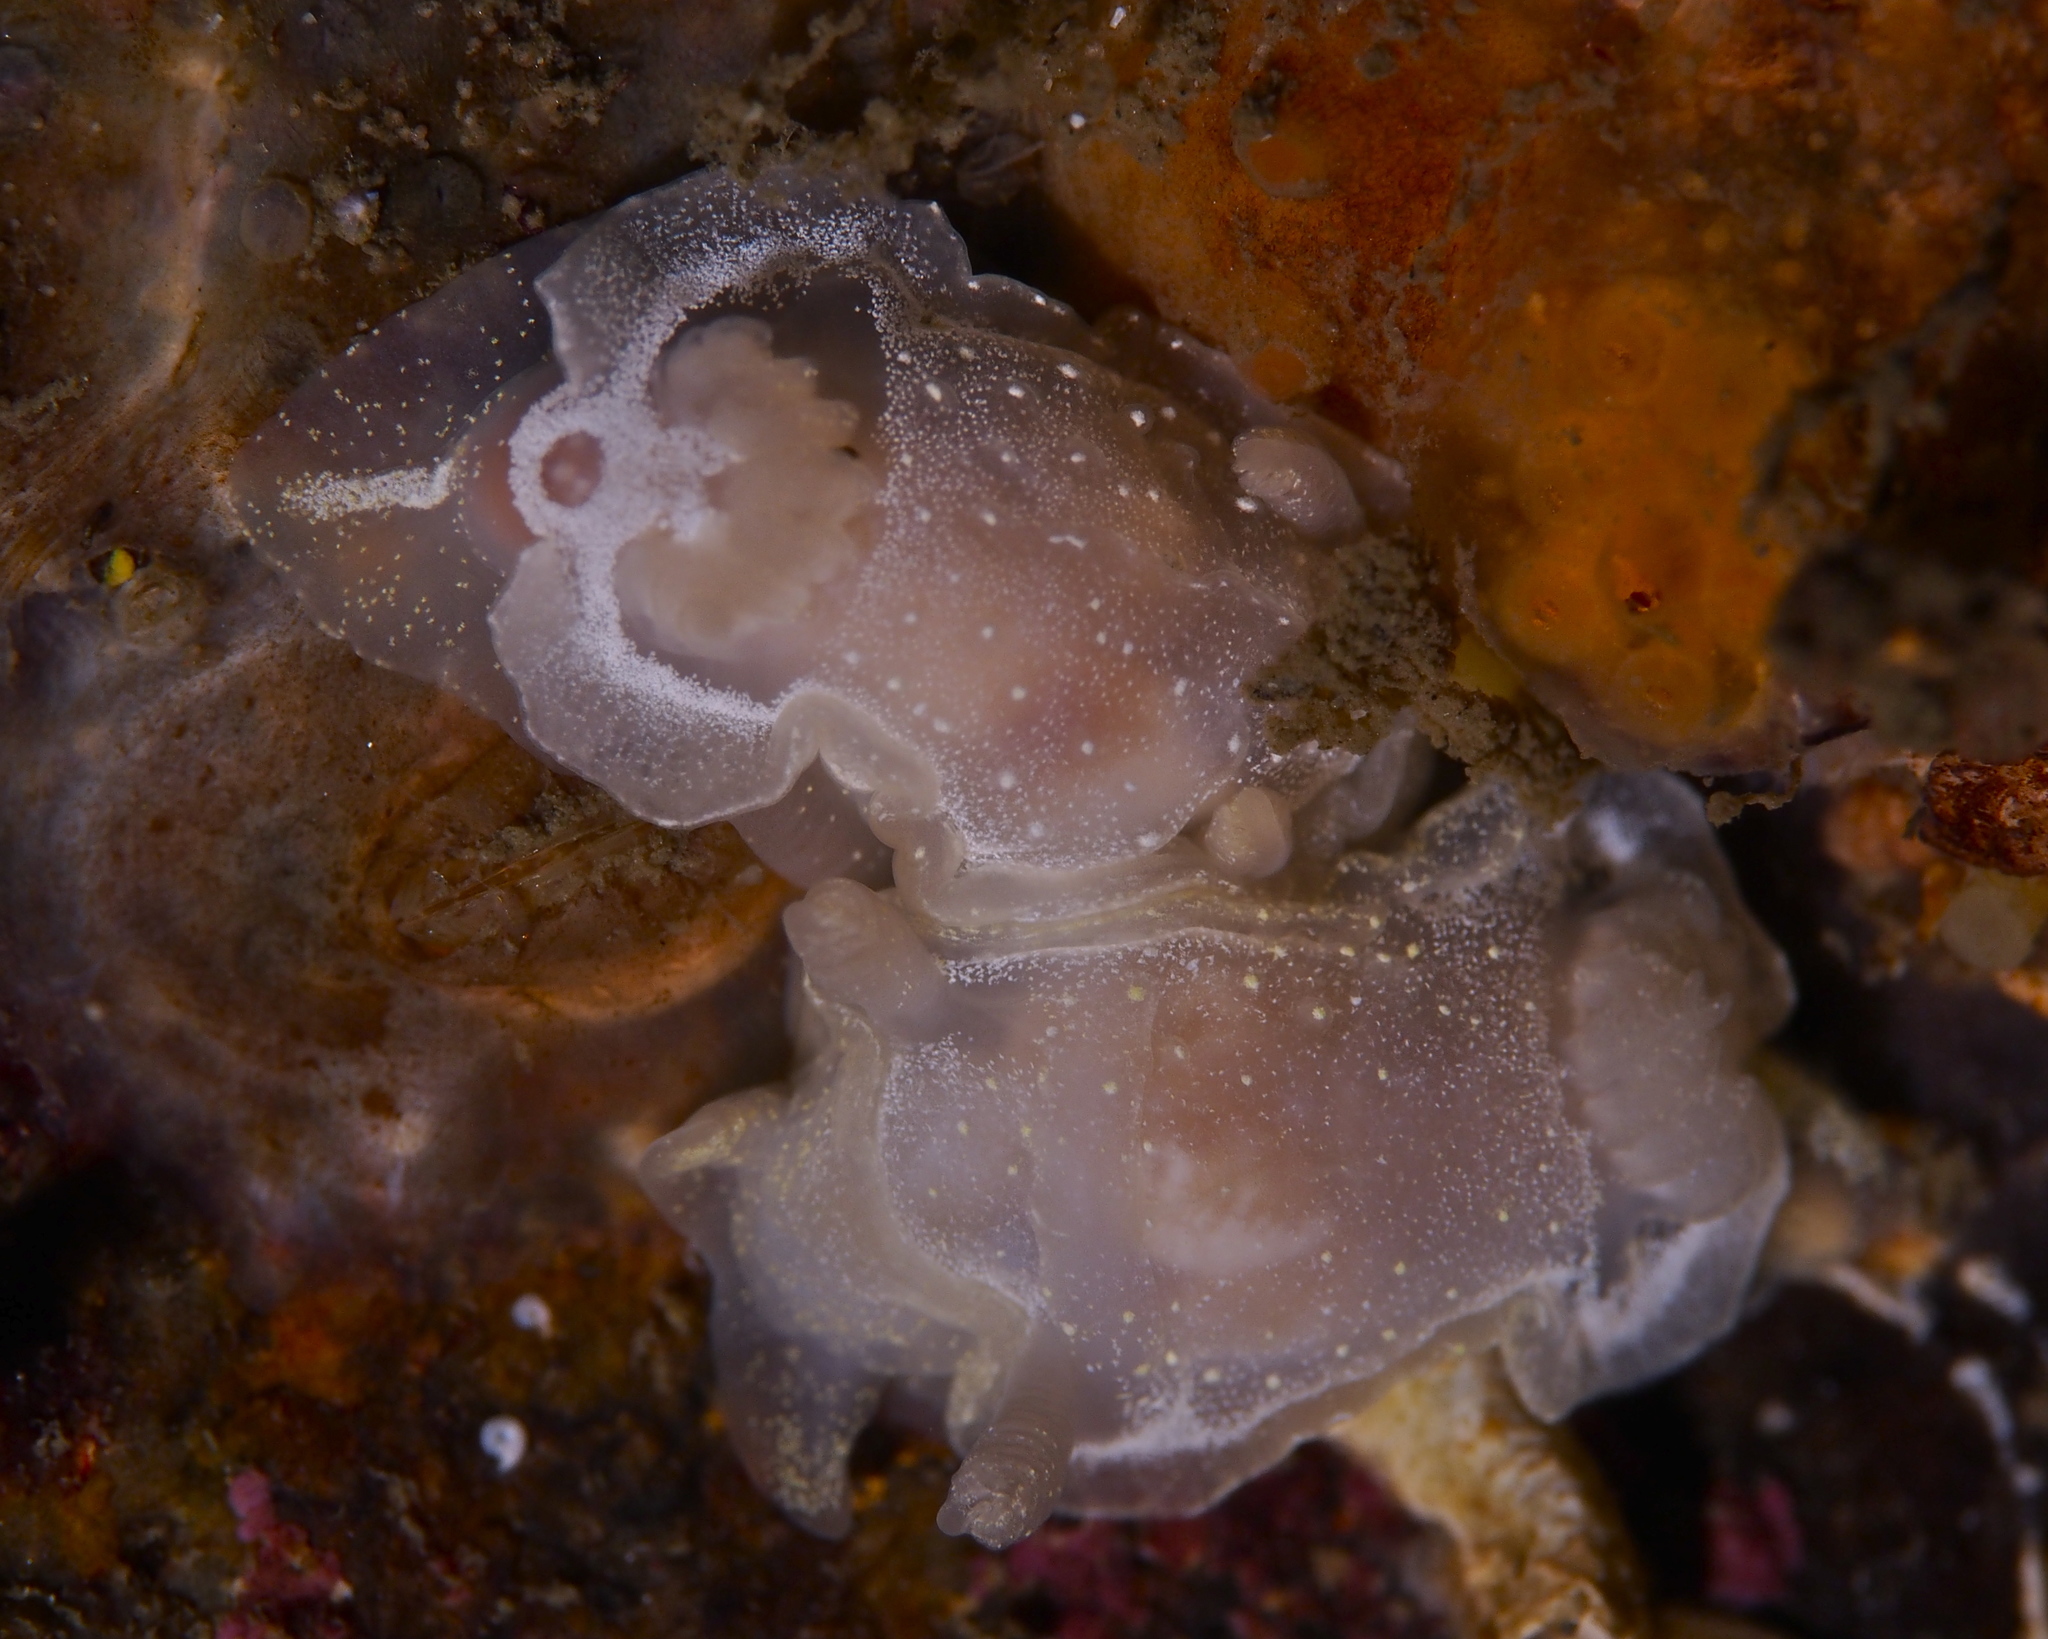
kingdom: Animalia
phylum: Mollusca
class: Gastropoda
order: Nudibranchia
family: Goniodorididae
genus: Okenia
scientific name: Okenia
